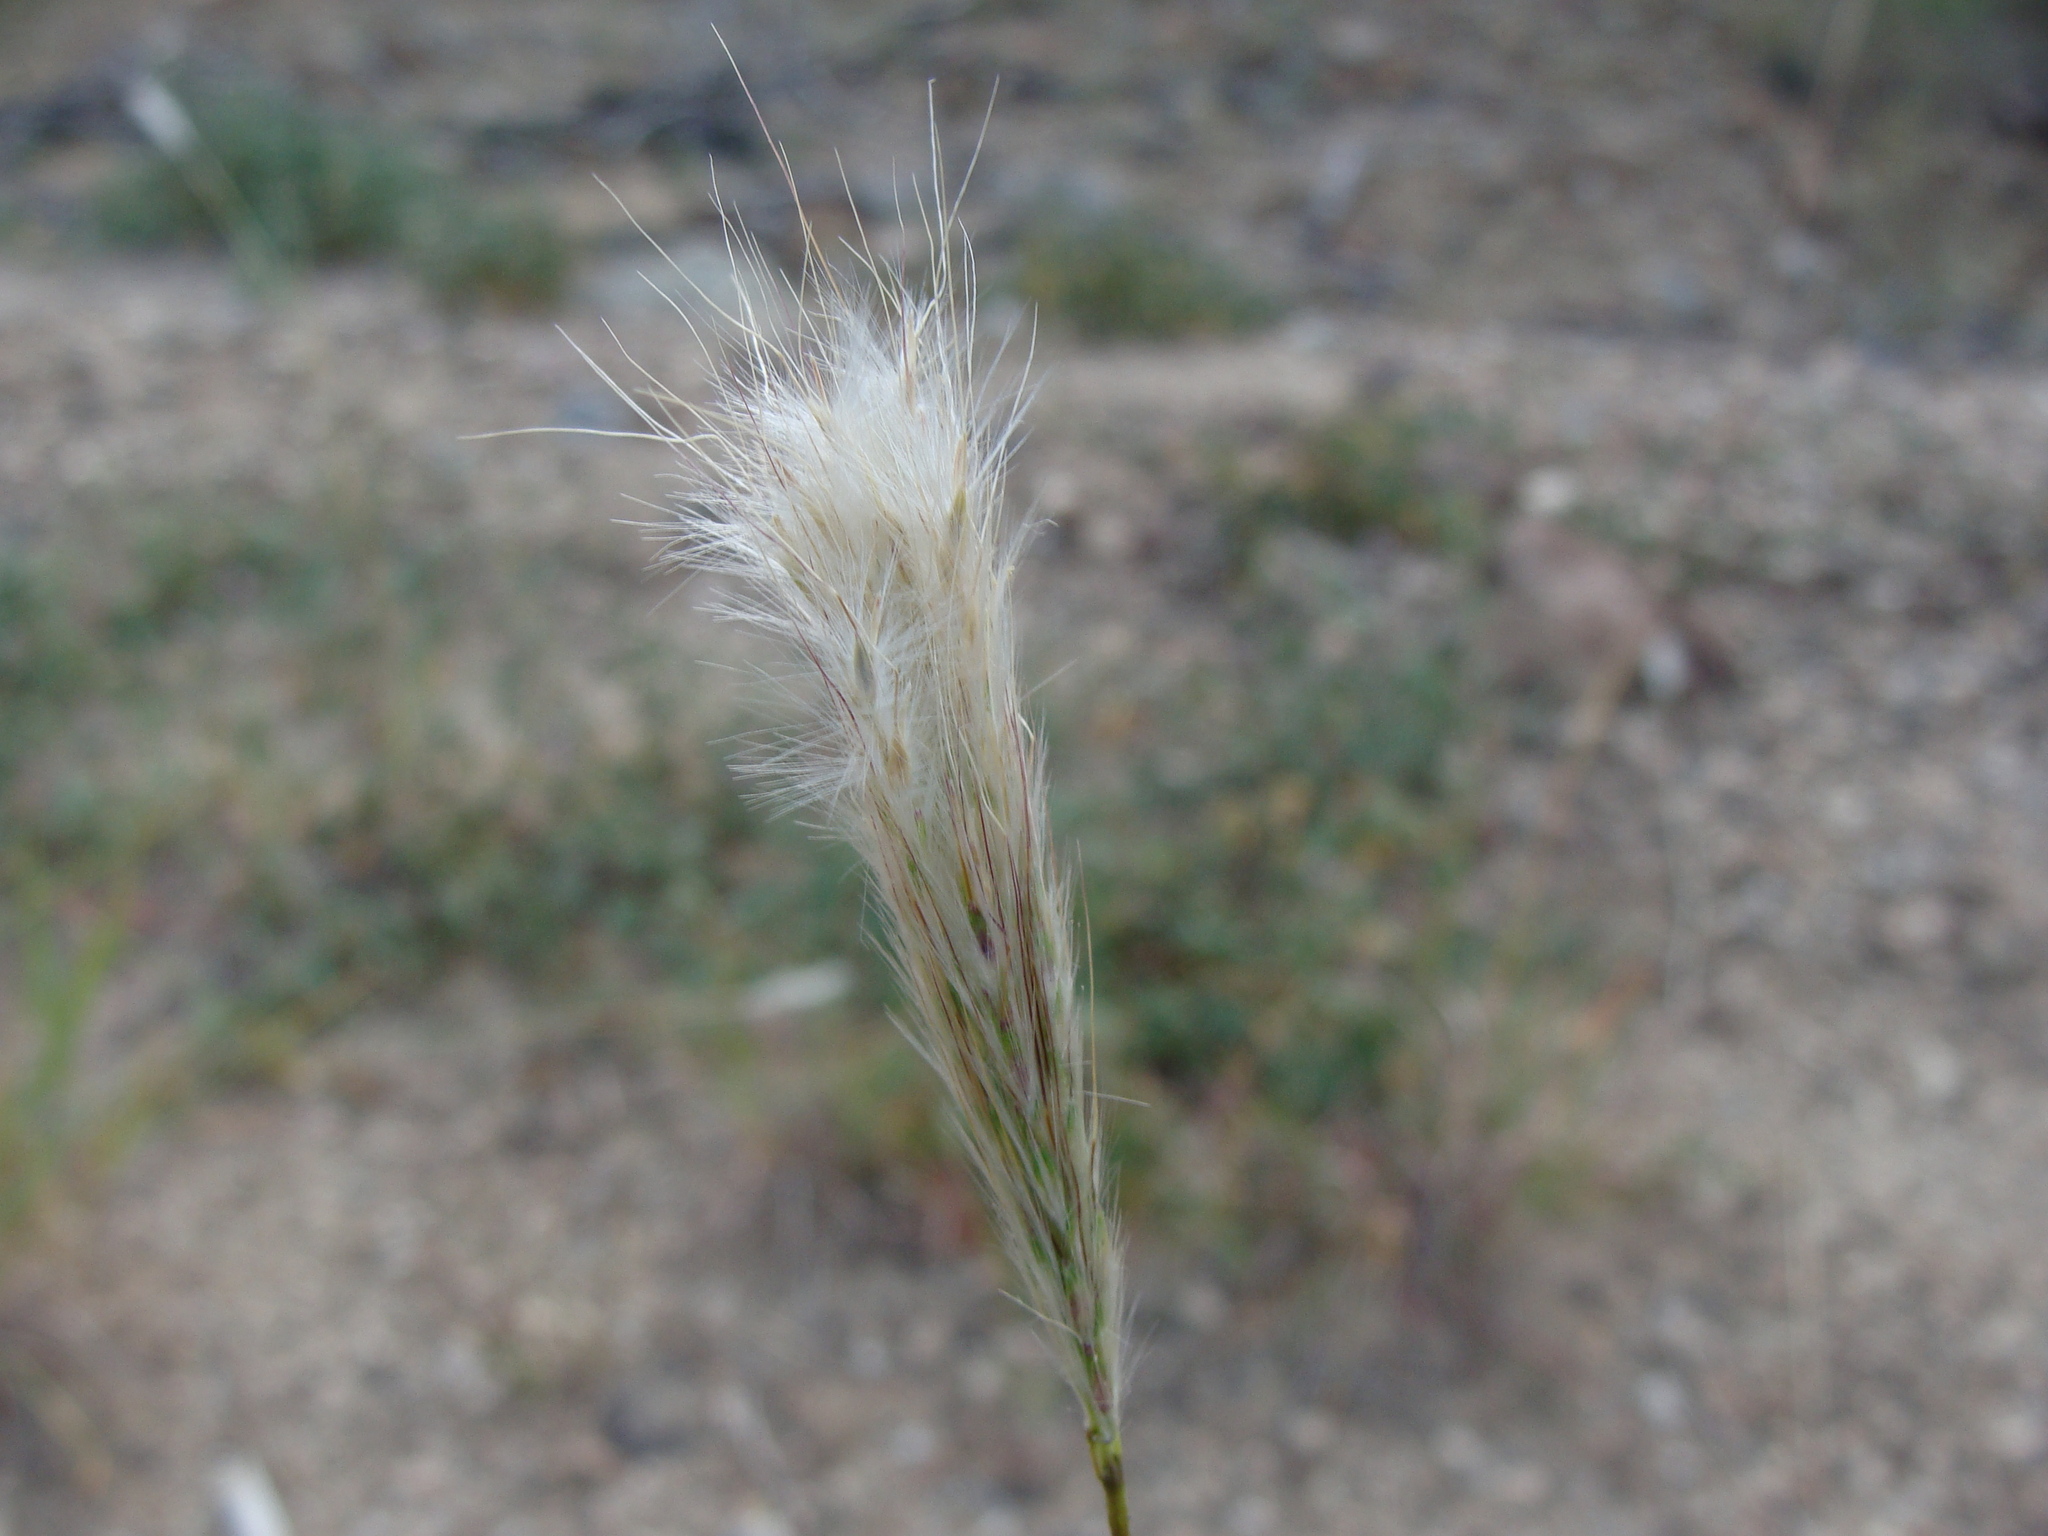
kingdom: Plantae
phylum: Tracheophyta
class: Liliopsida
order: Poales
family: Poaceae
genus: Bothriochloa
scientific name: Bothriochloa barbinodis
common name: Cane bluestem
